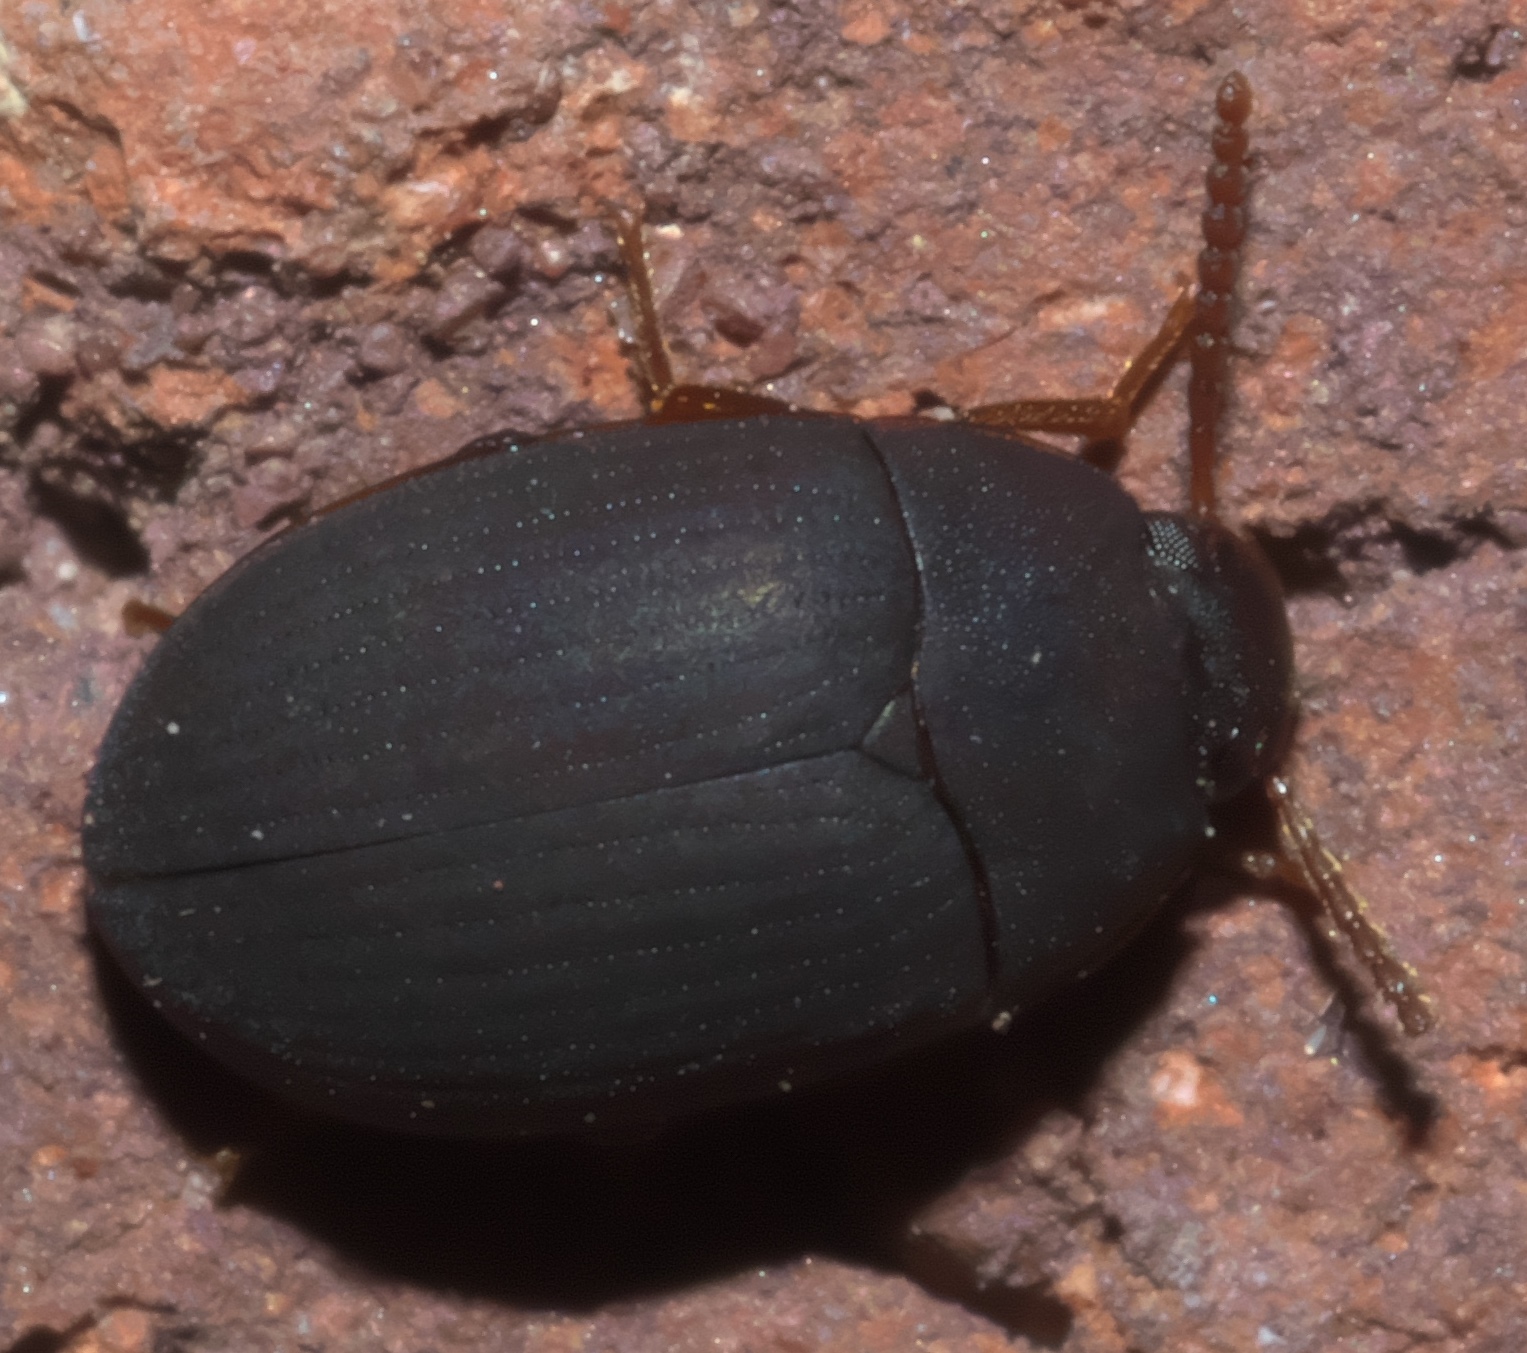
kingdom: Animalia
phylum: Arthropoda
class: Insecta
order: Coleoptera
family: Tenebrionidae
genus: Platydema
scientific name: Platydema ruficornis
